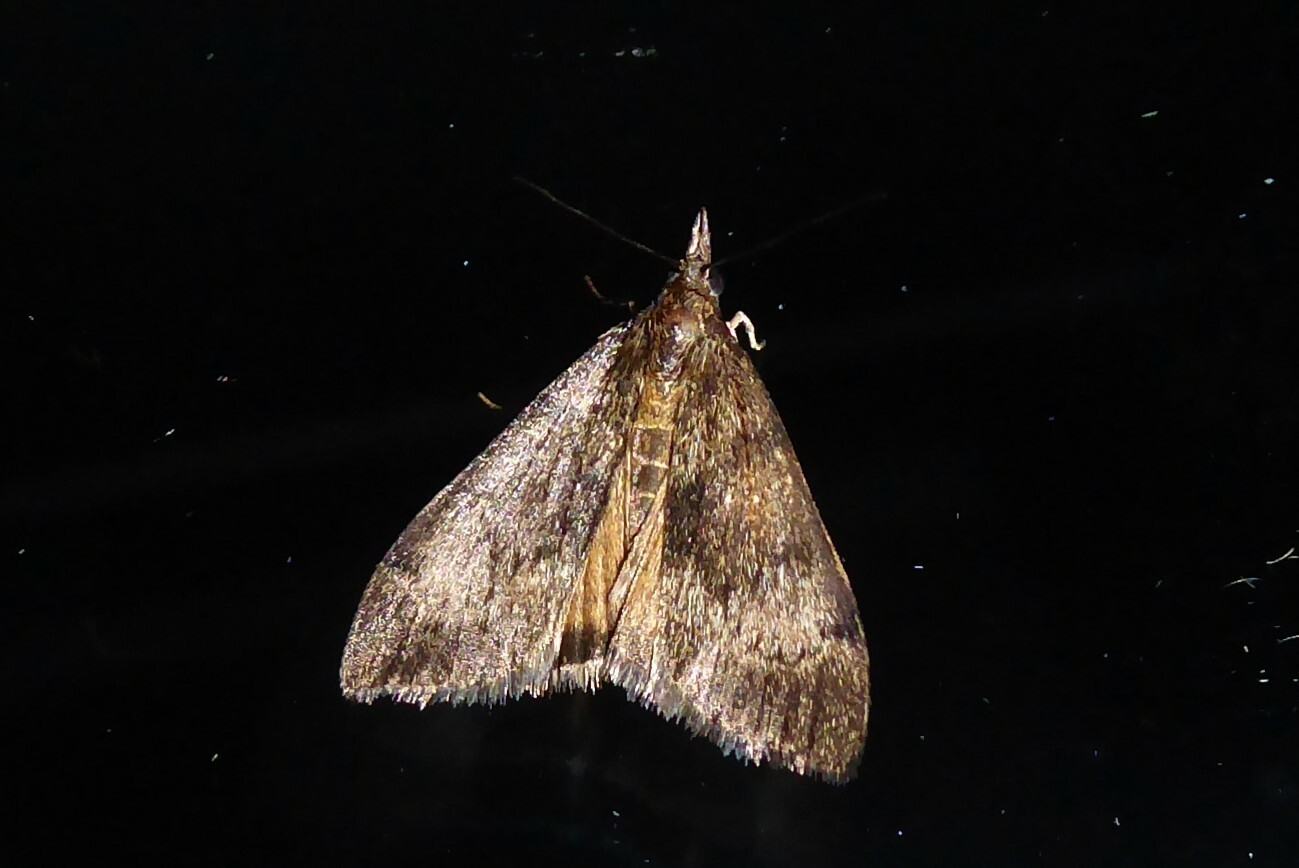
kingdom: Animalia
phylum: Arthropoda
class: Insecta
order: Lepidoptera
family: Crambidae
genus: Uresiphita
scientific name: Uresiphita
